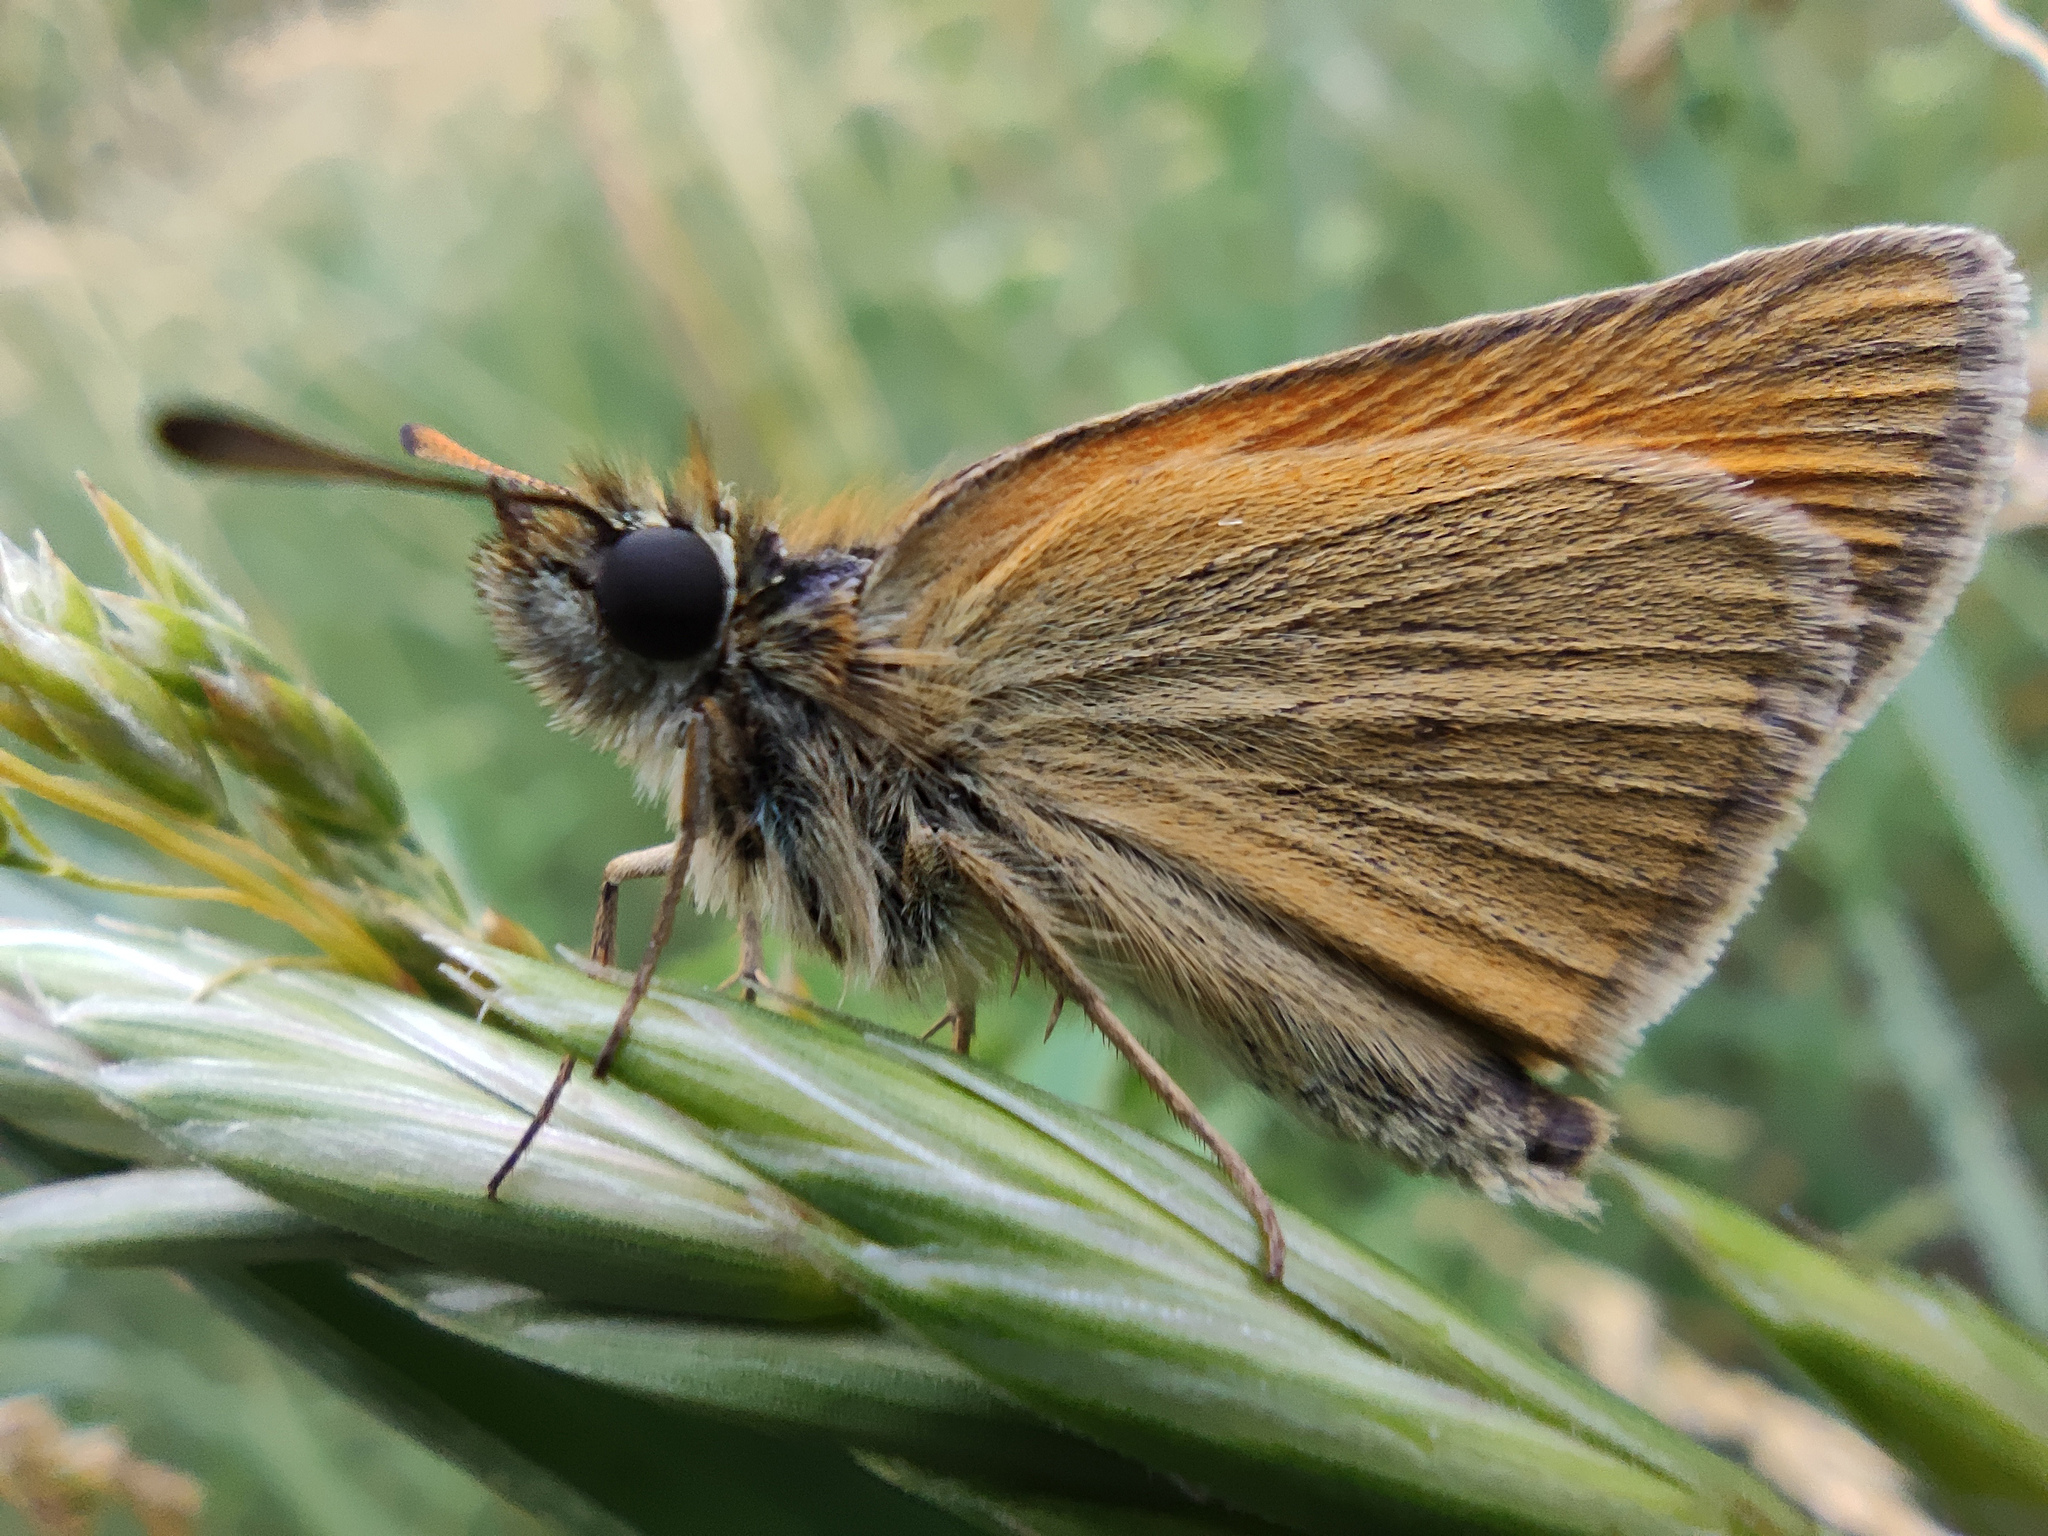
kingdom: Animalia
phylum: Arthropoda
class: Insecta
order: Lepidoptera
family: Hesperiidae
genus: Thymelicus
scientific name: Thymelicus lineola
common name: Essex skipper
